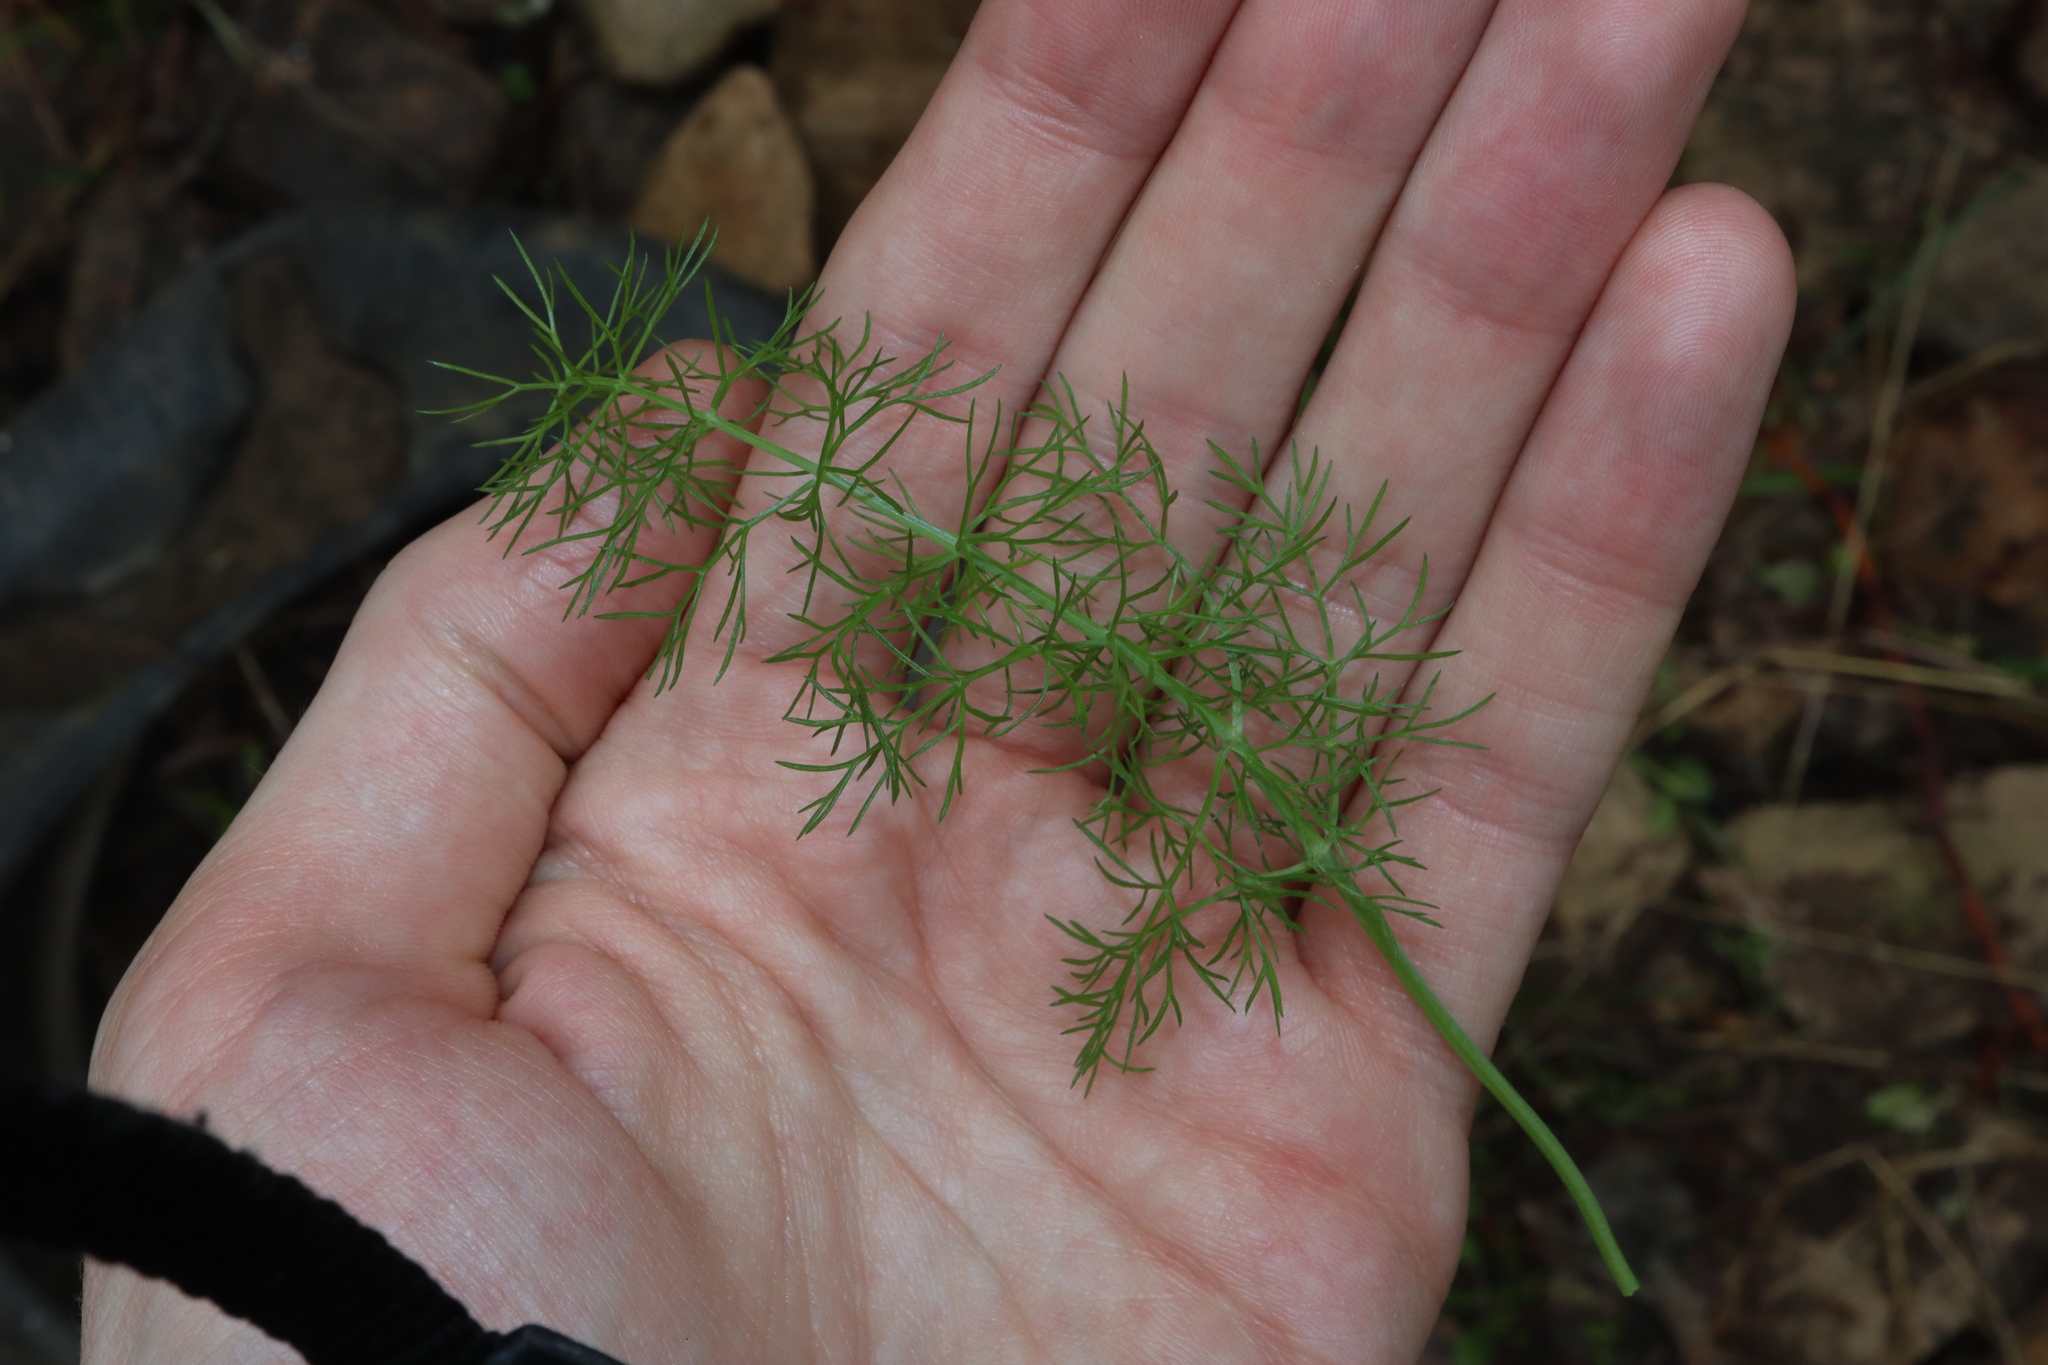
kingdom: Plantae
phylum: Tracheophyta
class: Magnoliopsida
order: Apiales
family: Apiaceae
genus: Foeniculum
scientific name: Foeniculum vulgare
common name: Fennel
